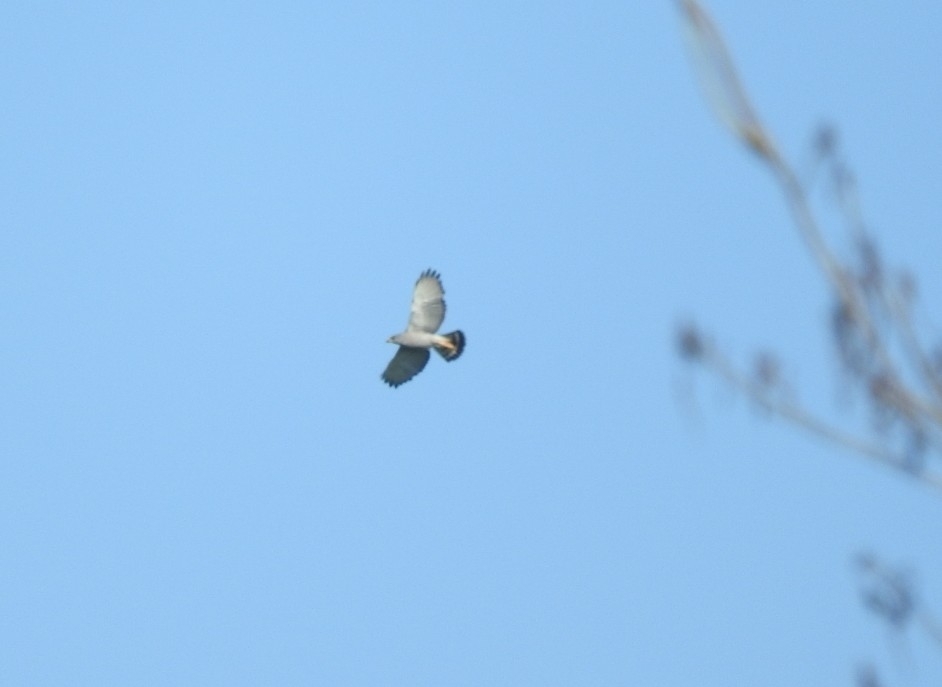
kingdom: Animalia
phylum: Chordata
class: Aves
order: Accipitriformes
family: Accipitridae
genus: Buteo
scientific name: Buteo nitidus
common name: Grey-lined hawk
